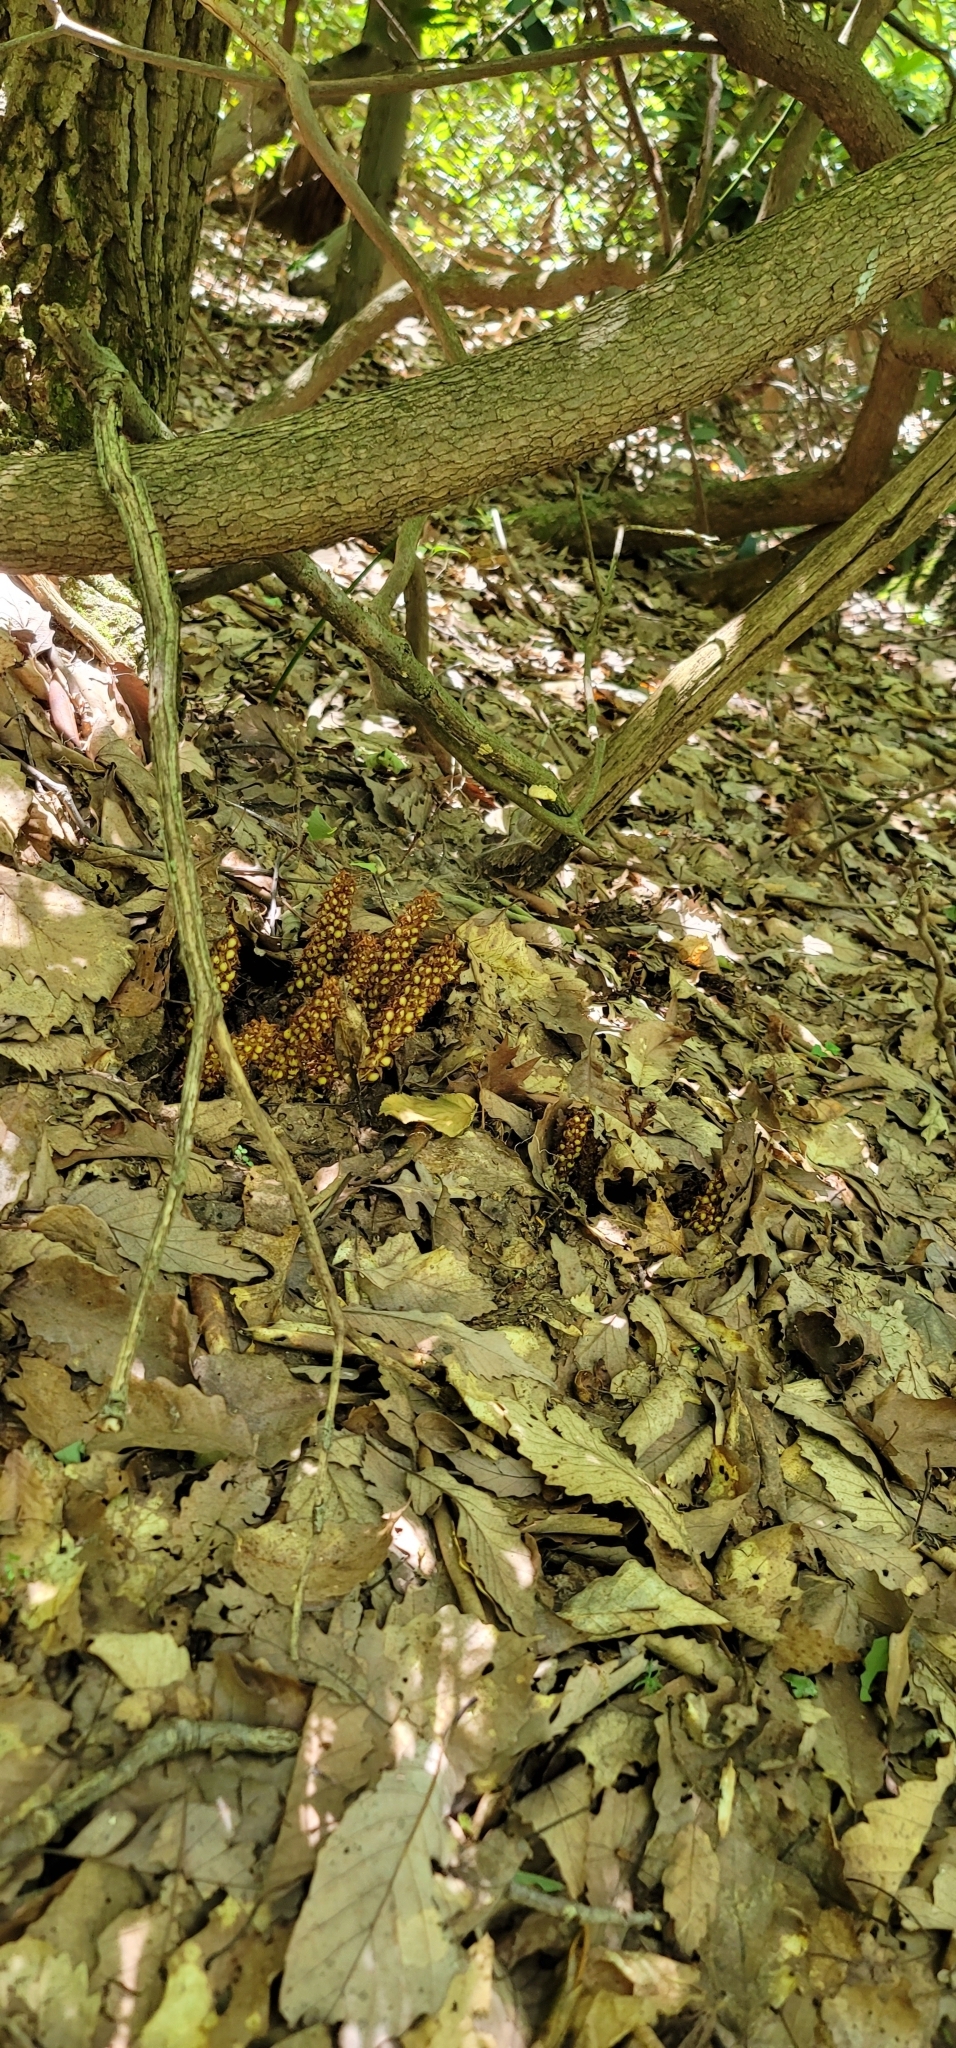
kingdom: Plantae
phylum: Tracheophyta
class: Magnoliopsida
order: Lamiales
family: Orobanchaceae
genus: Conopholis
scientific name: Conopholis americana
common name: American cancer-root
